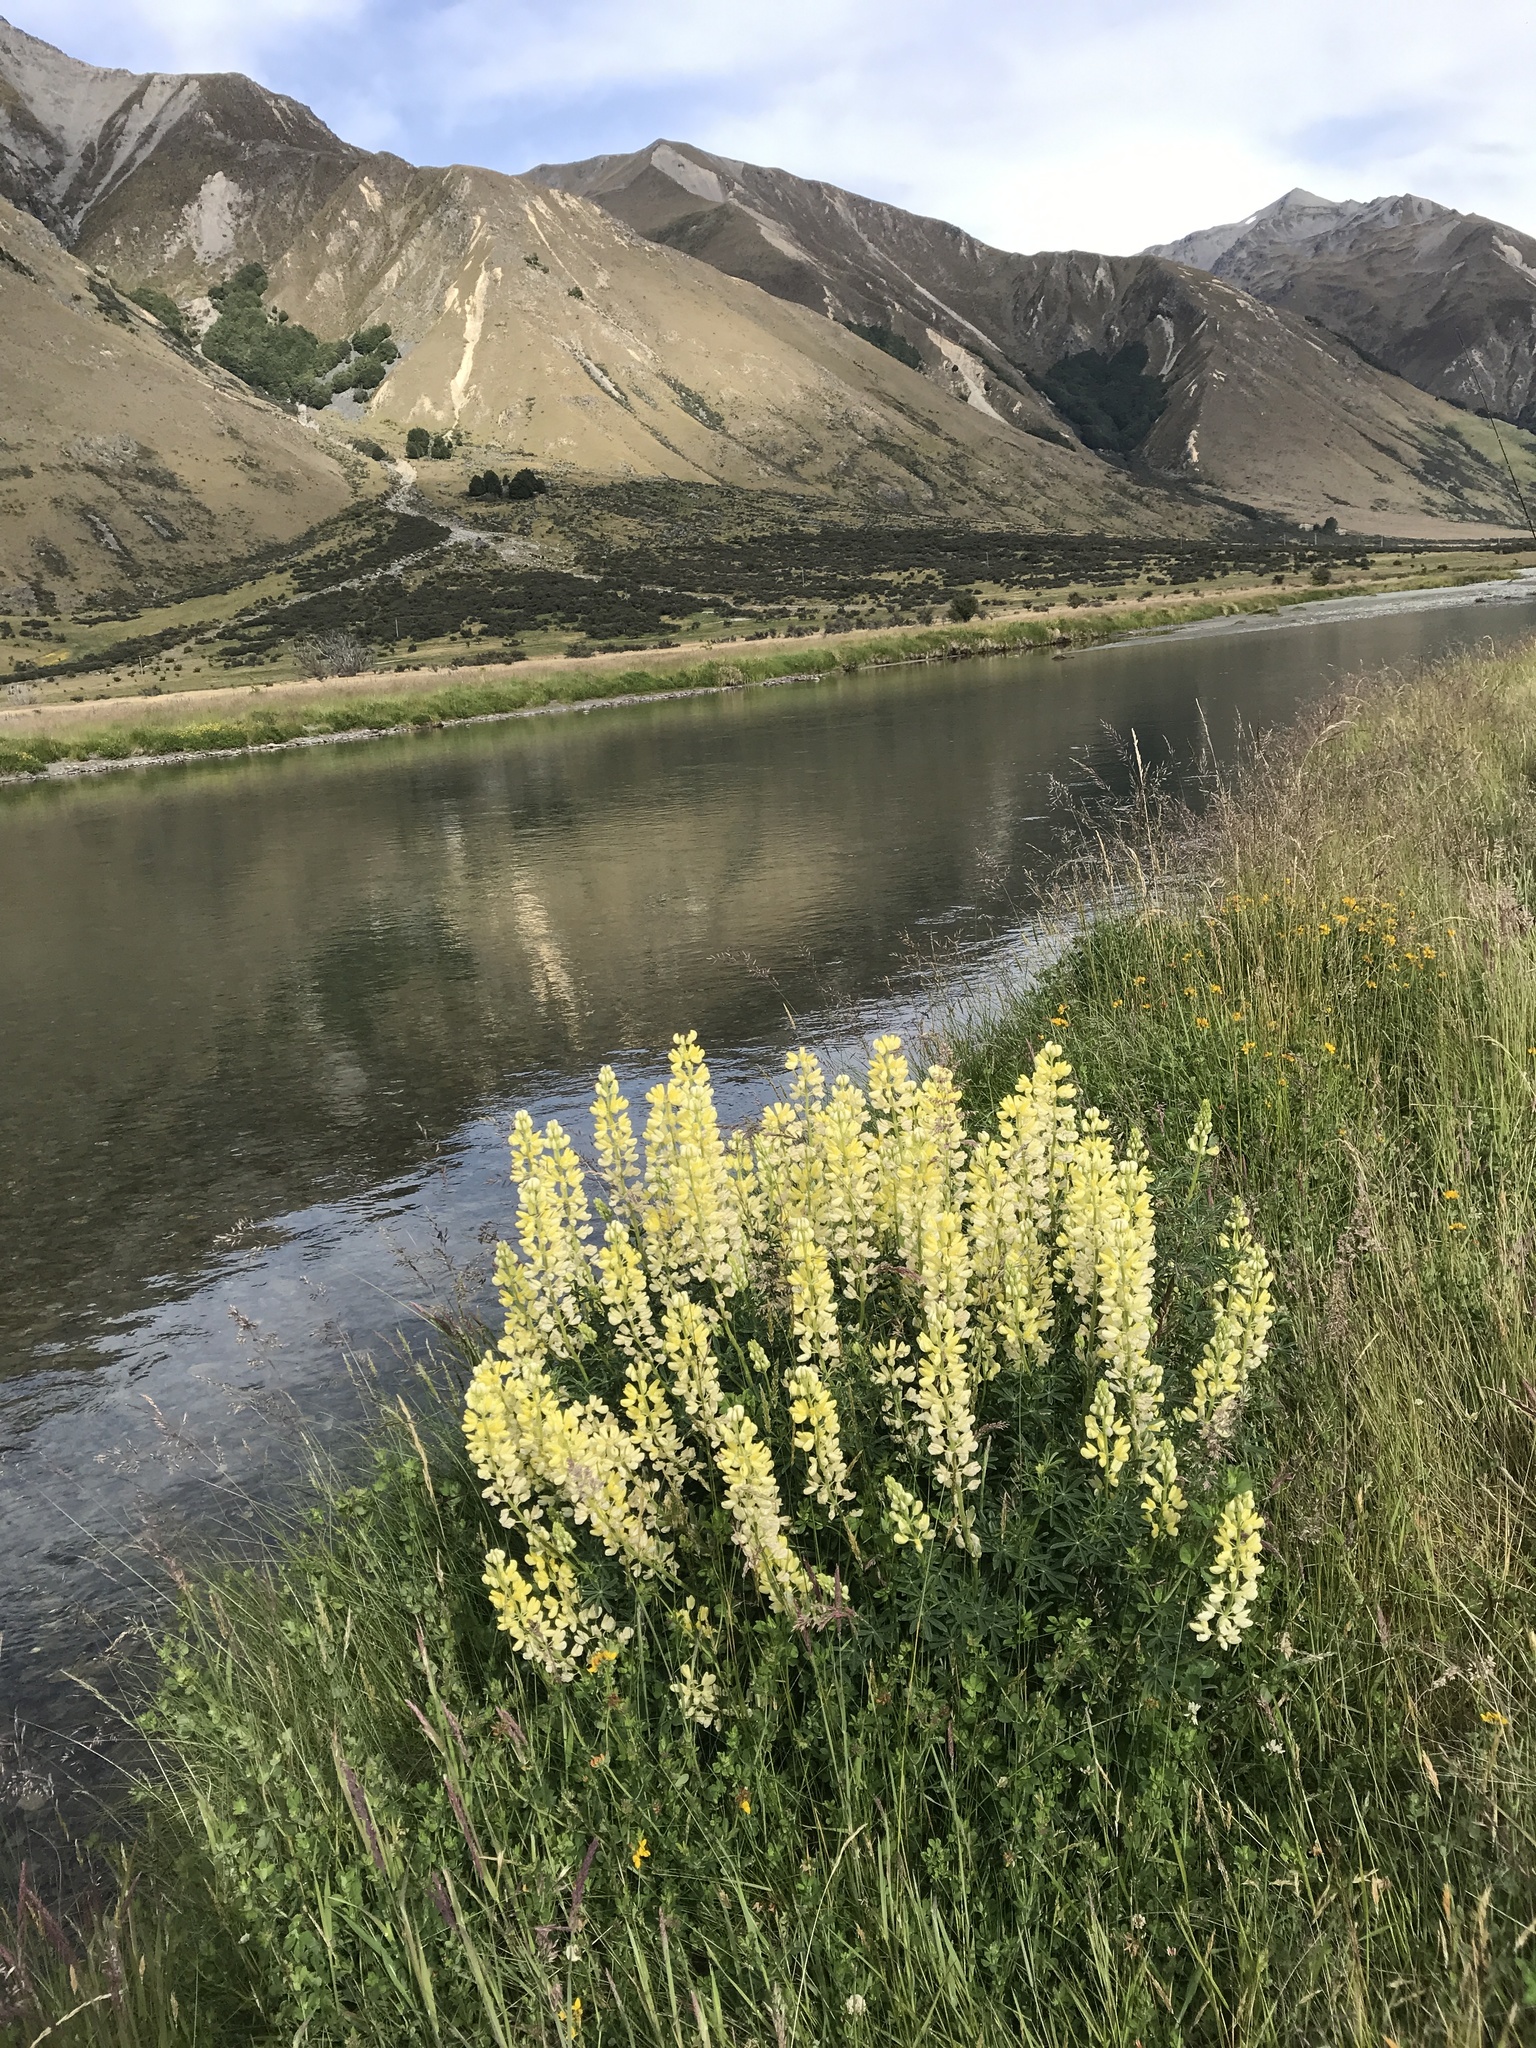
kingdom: Plantae
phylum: Tracheophyta
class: Magnoliopsida
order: Fabales
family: Fabaceae
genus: Lupinus
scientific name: Lupinus arboreus
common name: Yellow bush lupine
